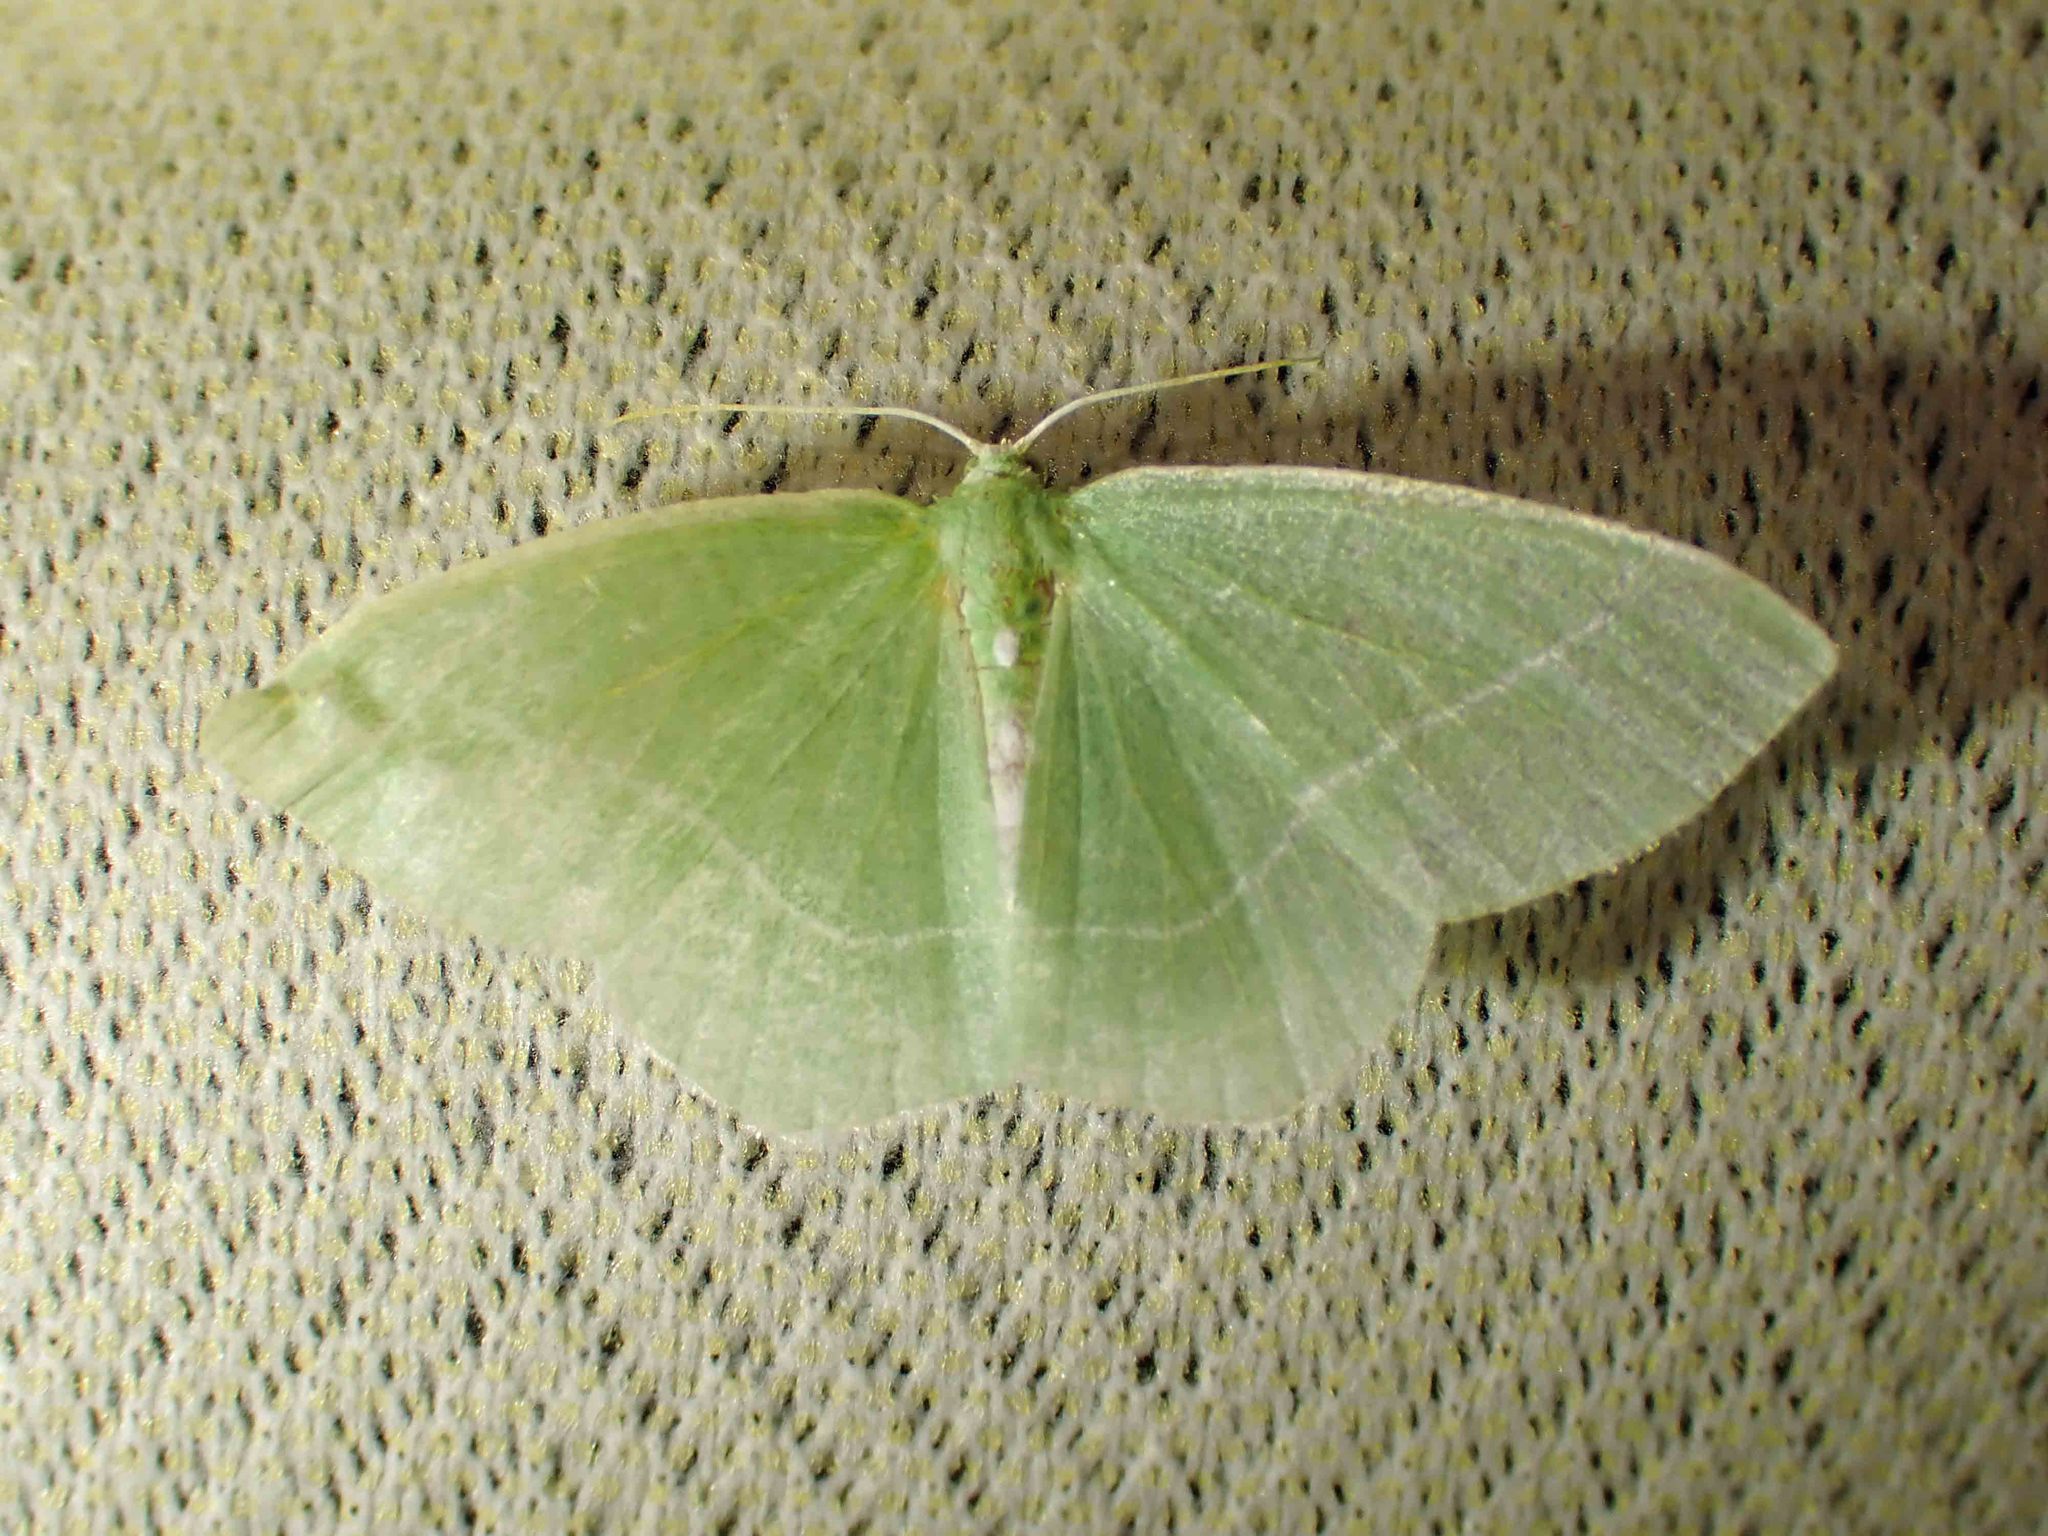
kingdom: Animalia
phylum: Arthropoda
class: Insecta
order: Lepidoptera
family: Geometridae
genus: Nemoria
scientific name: Nemoria mimosaria
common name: White-fringed emerald
